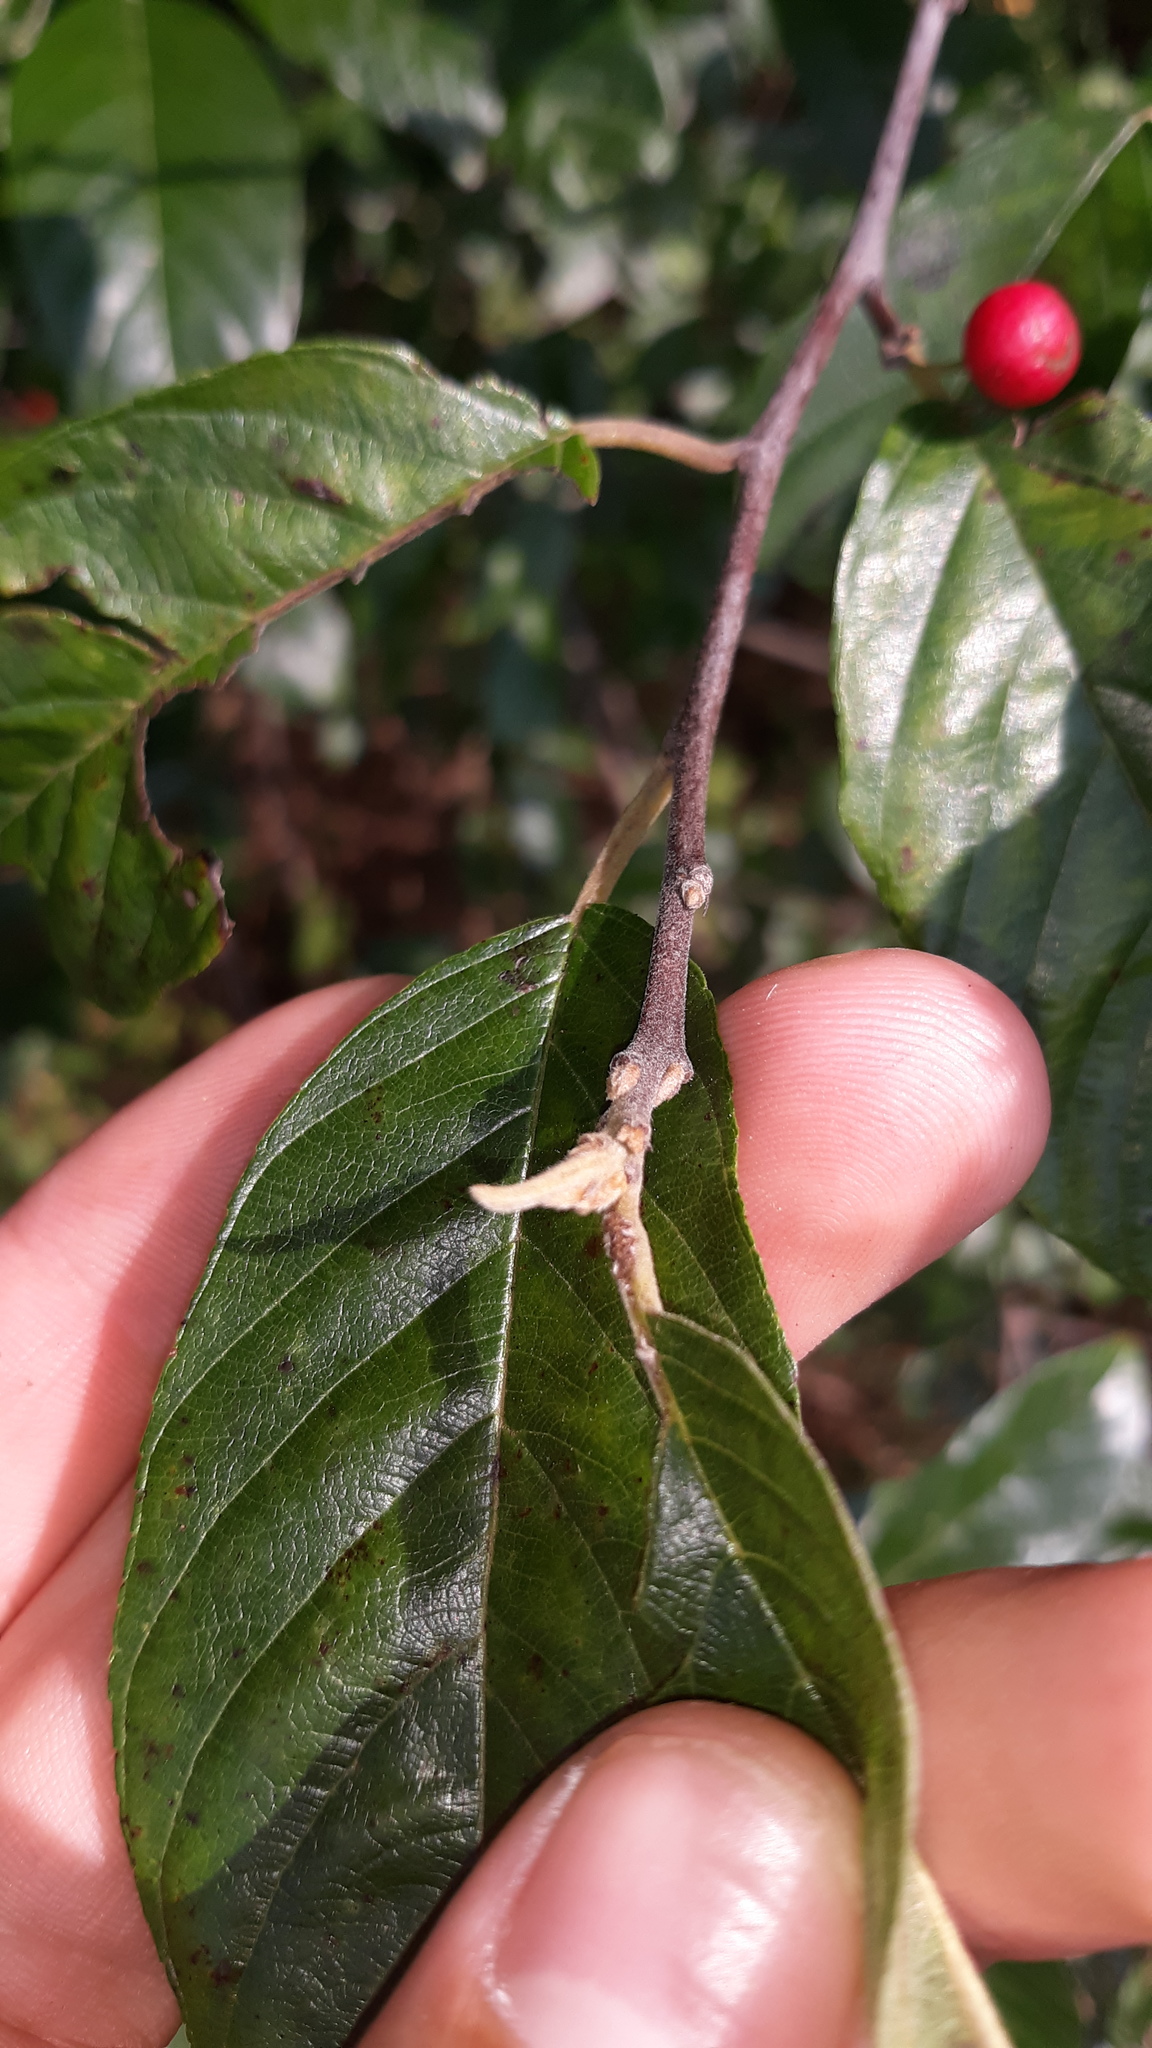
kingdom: Plantae
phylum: Tracheophyta
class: Magnoliopsida
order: Rosales
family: Rhamnaceae
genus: Frangula
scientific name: Frangula caroliniana
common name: Carolina buckthorn
